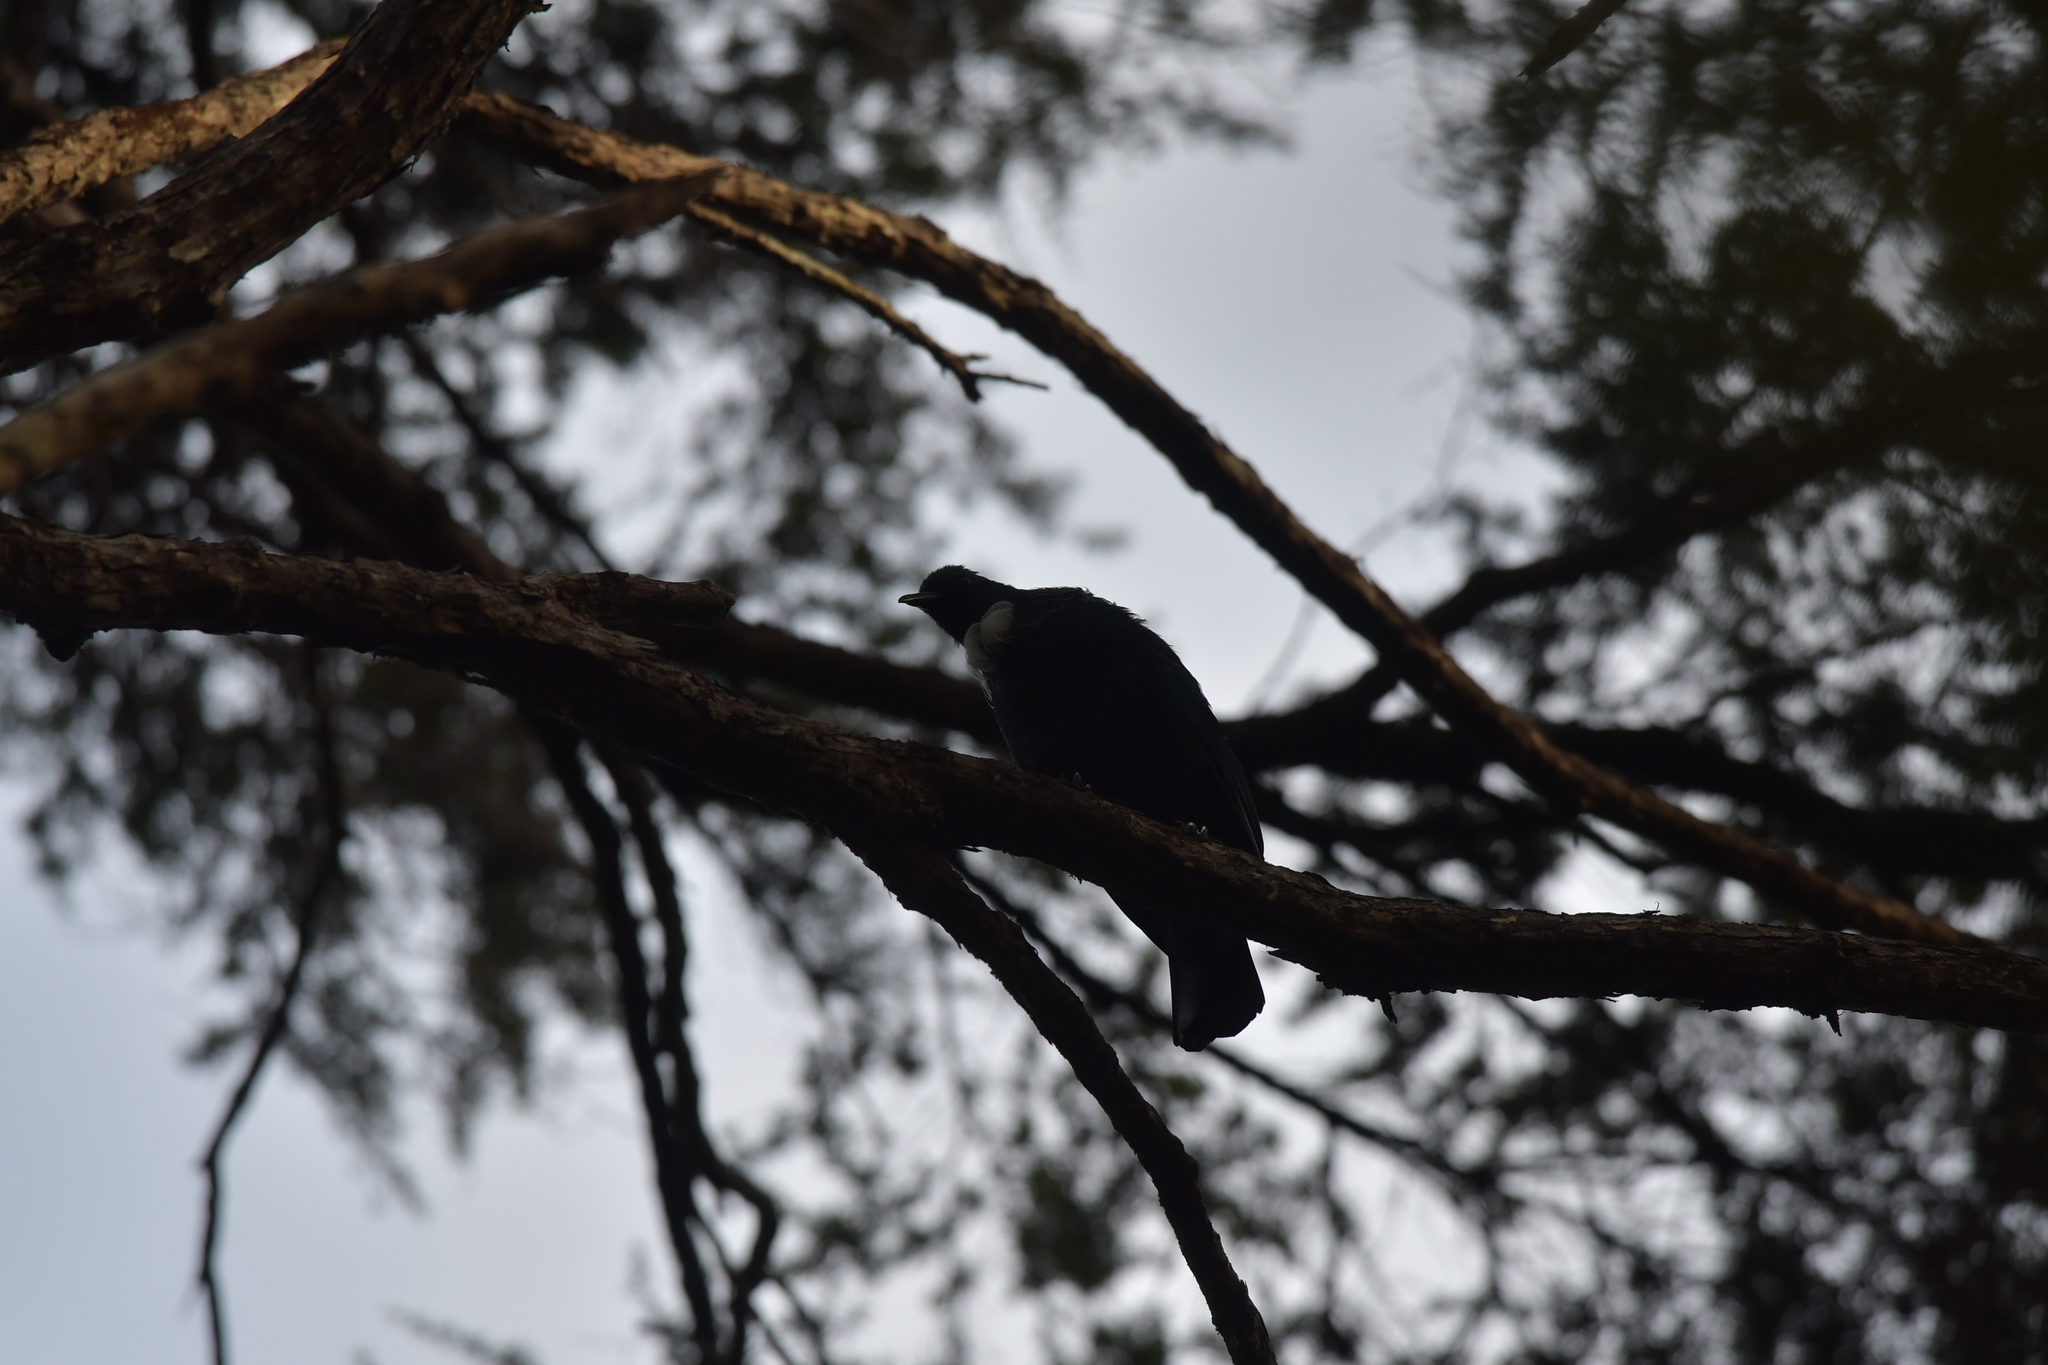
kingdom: Animalia
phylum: Chordata
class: Aves
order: Passeriformes
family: Meliphagidae
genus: Prosthemadera
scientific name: Prosthemadera novaeseelandiae
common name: Tui
